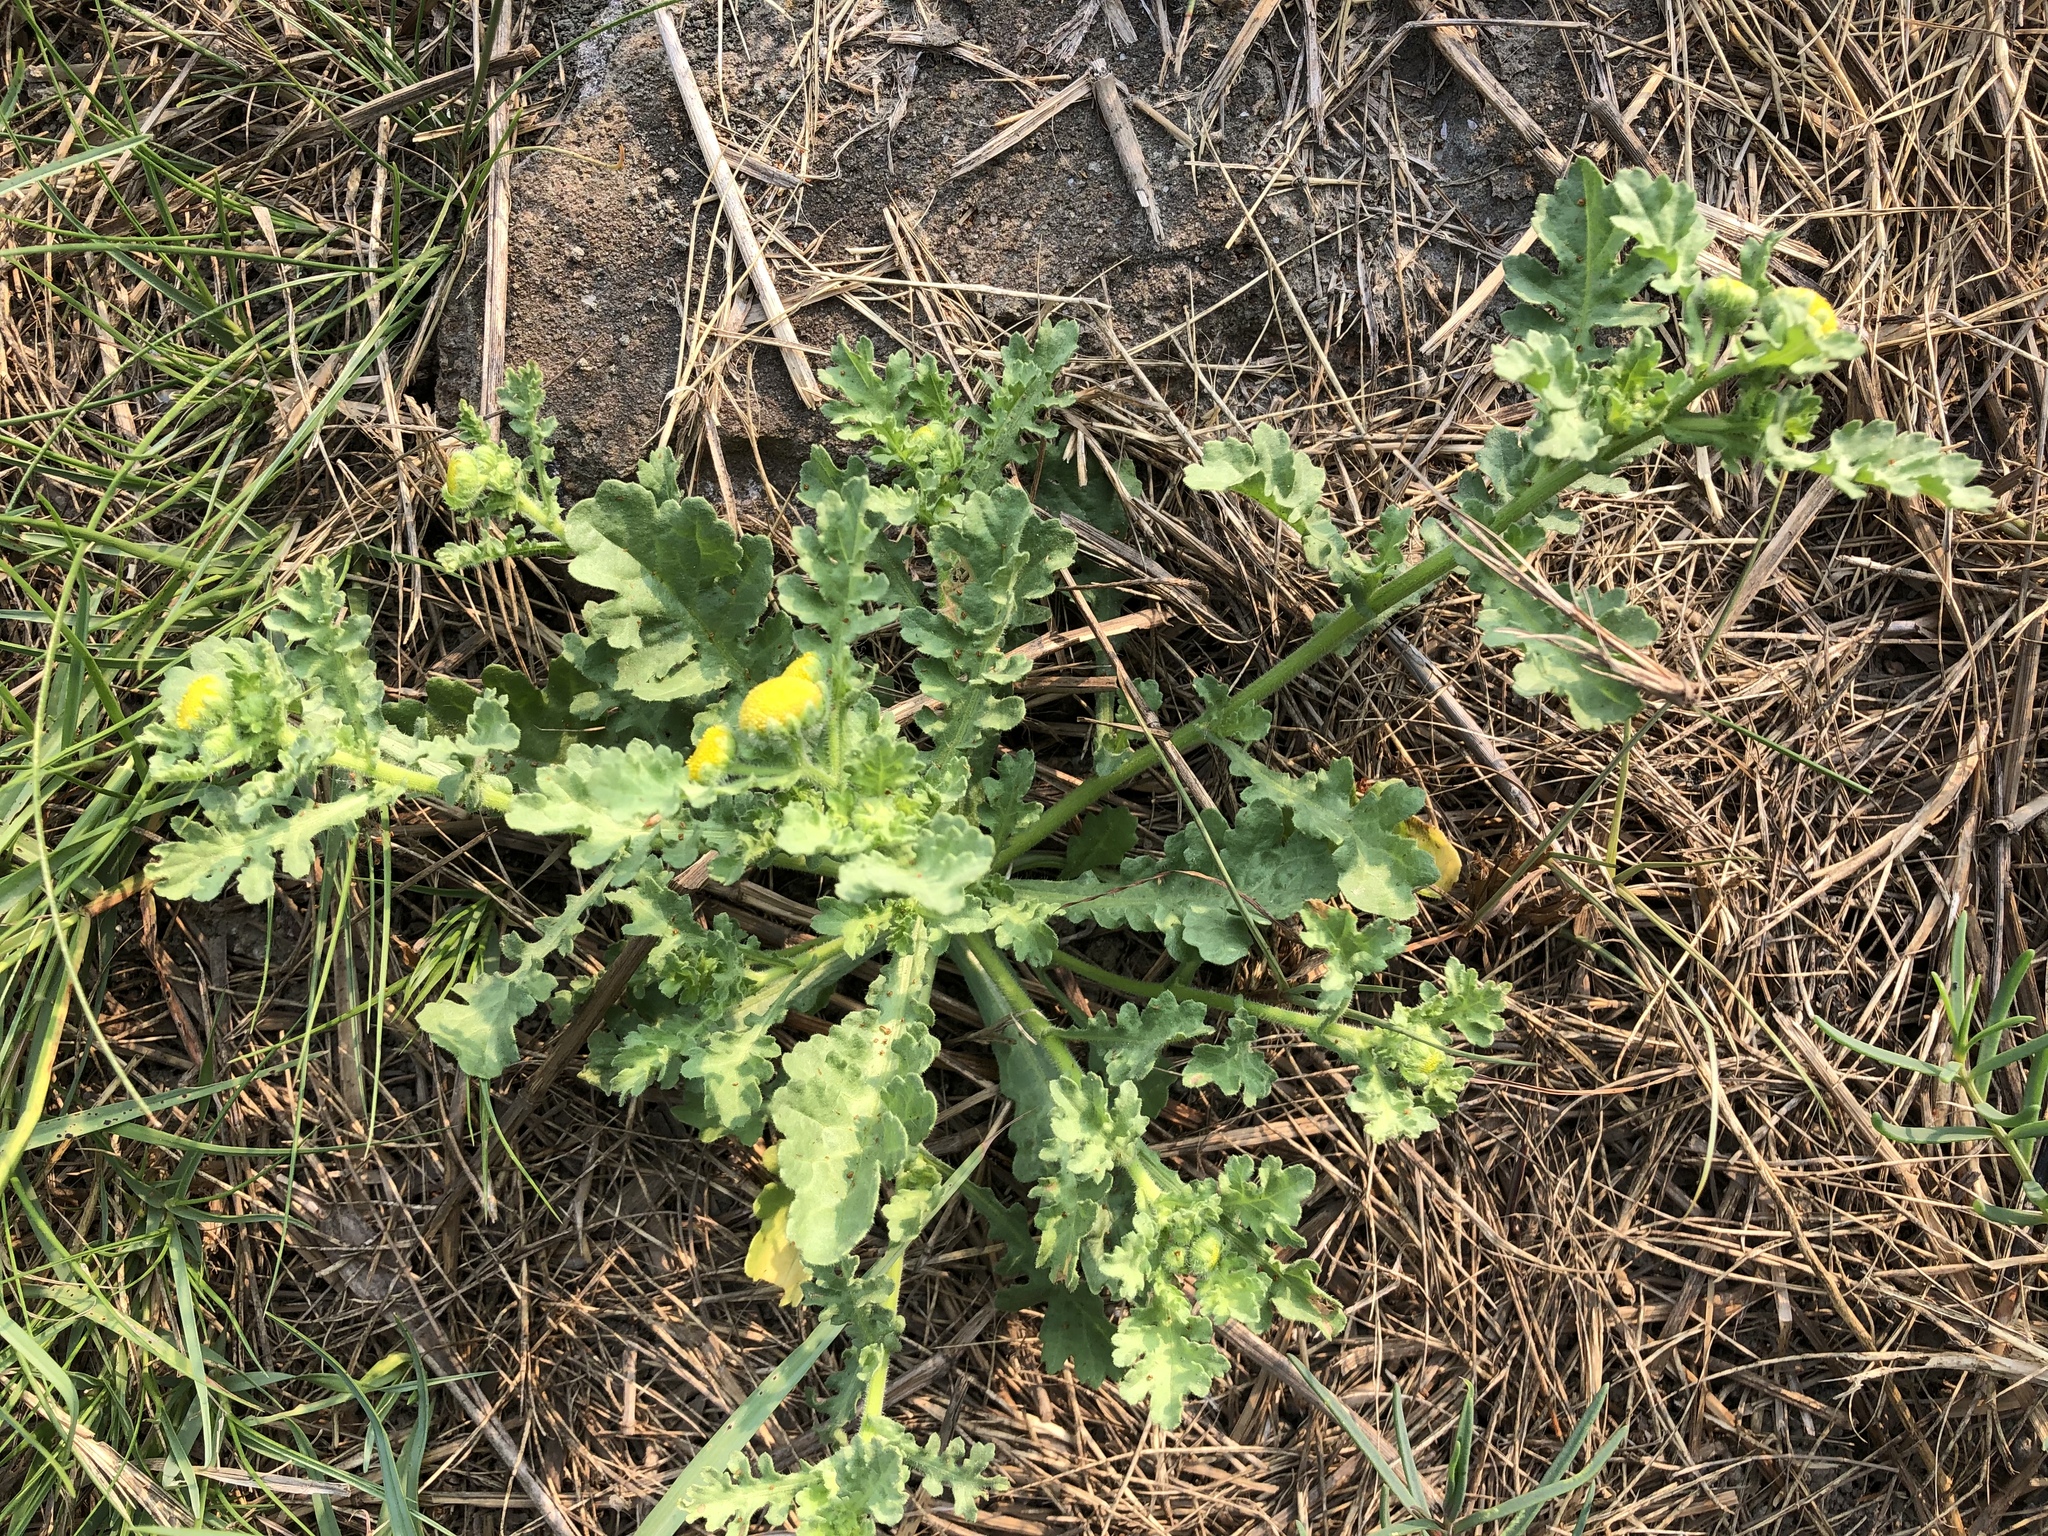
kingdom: Plantae
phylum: Tracheophyta
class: Magnoliopsida
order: Asterales
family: Asteraceae
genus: Grangea
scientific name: Grangea maderaspatana
